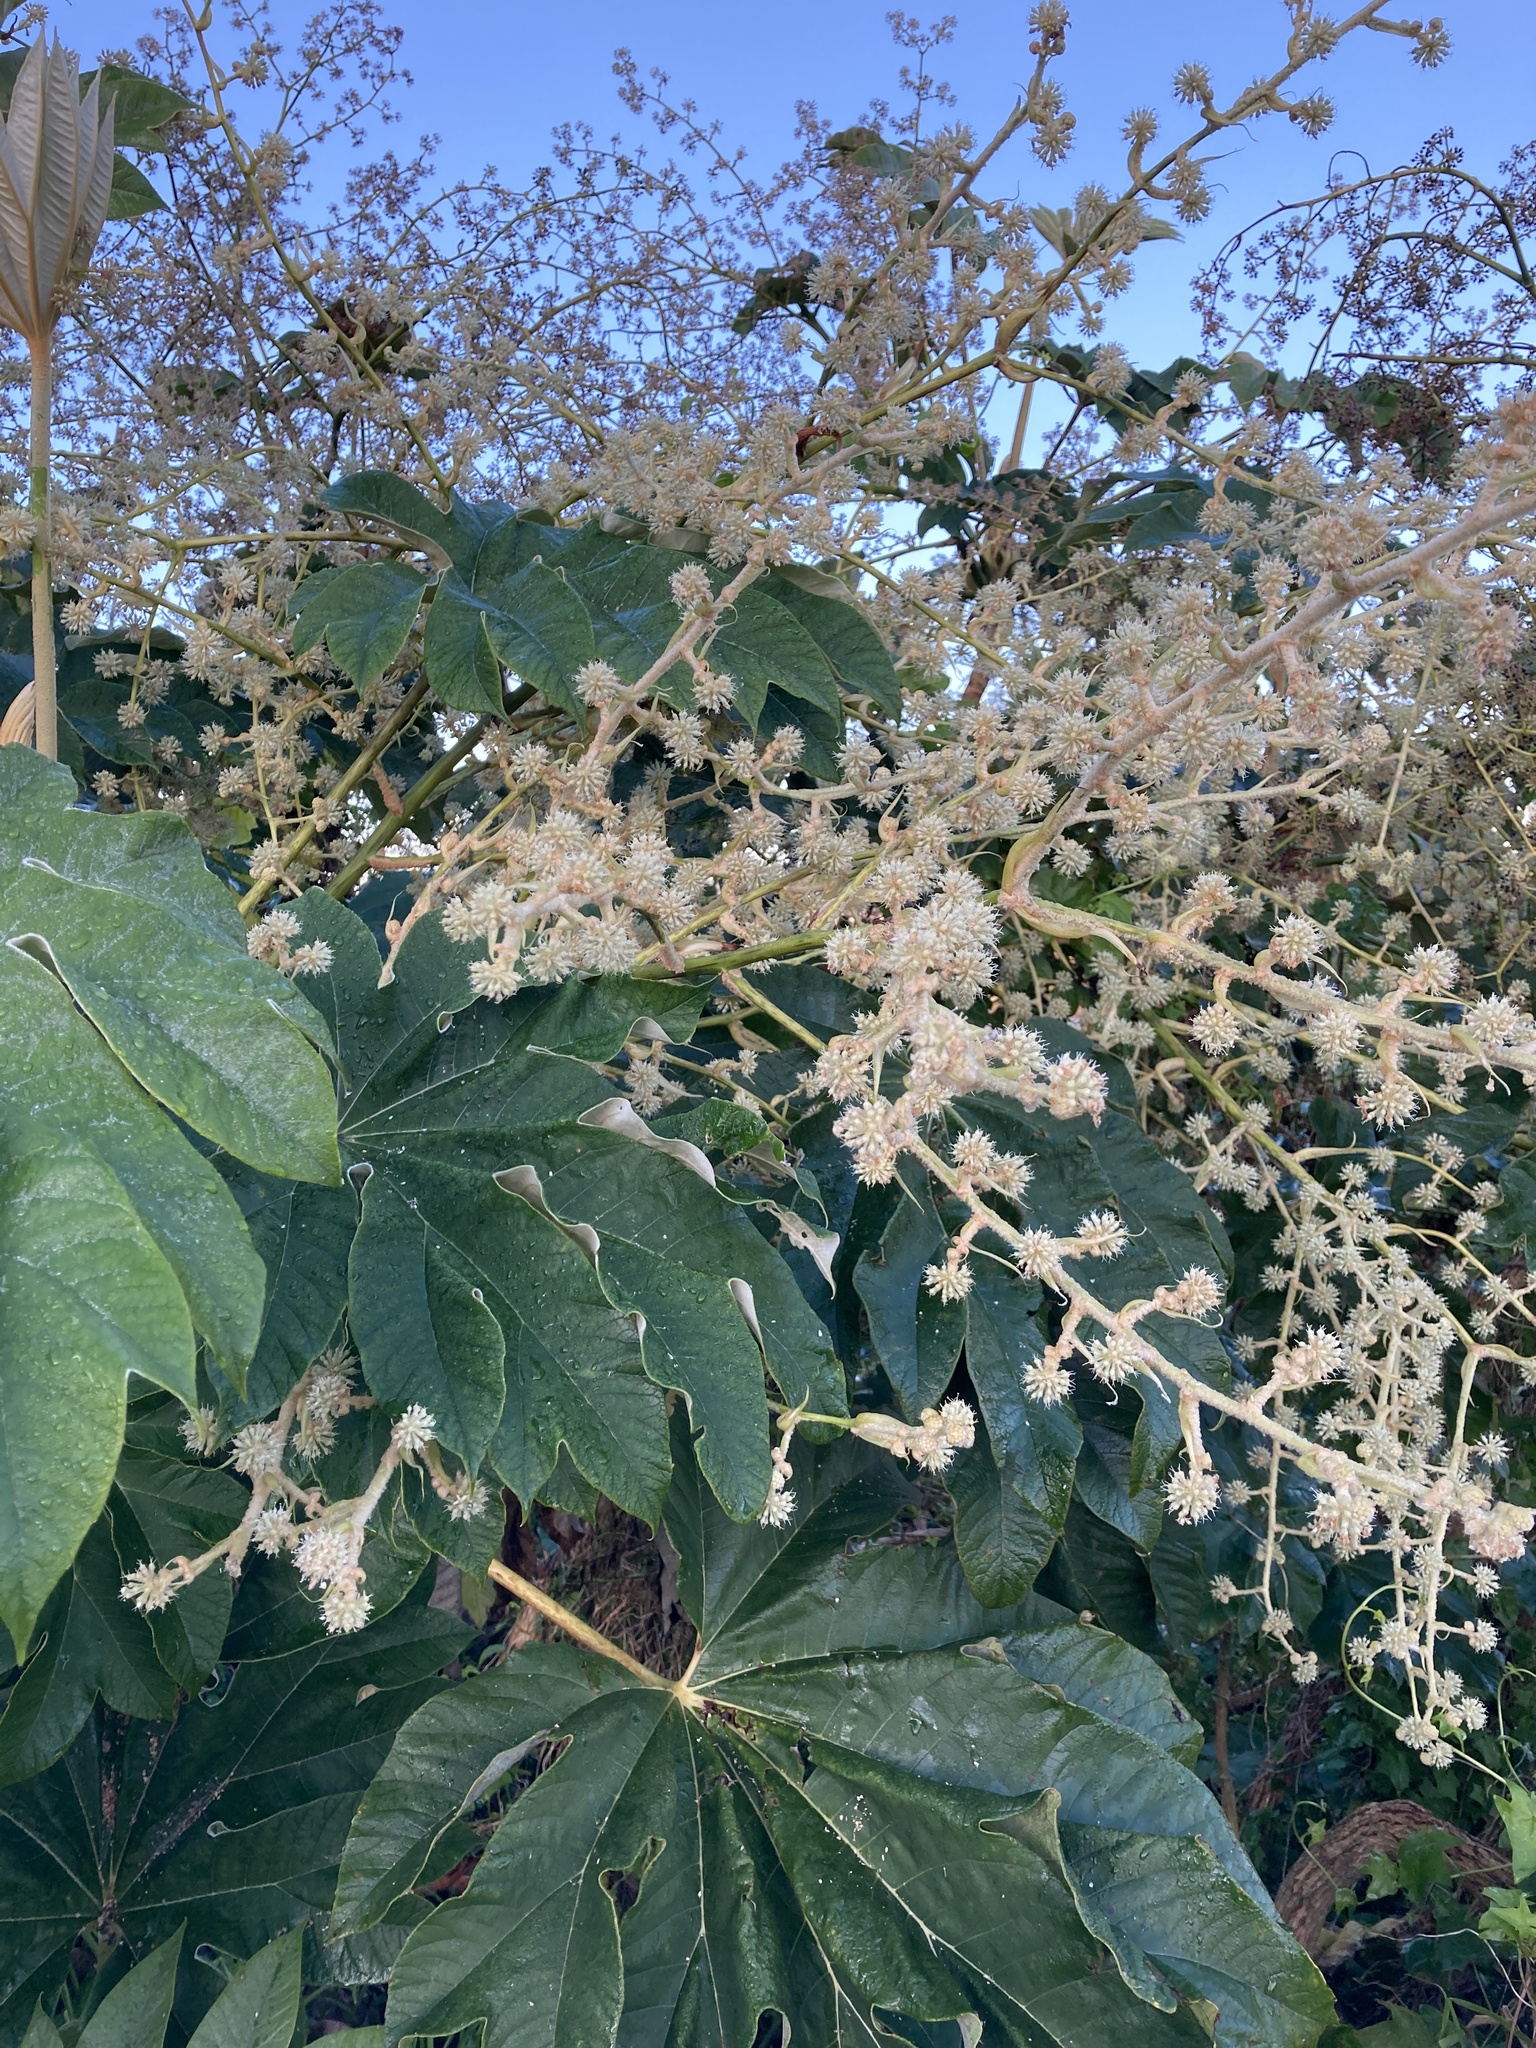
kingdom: Plantae
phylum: Tracheophyta
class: Magnoliopsida
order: Apiales
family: Araliaceae
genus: Tetrapanax
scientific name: Tetrapanax papyrifer
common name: Rice-paper plant
